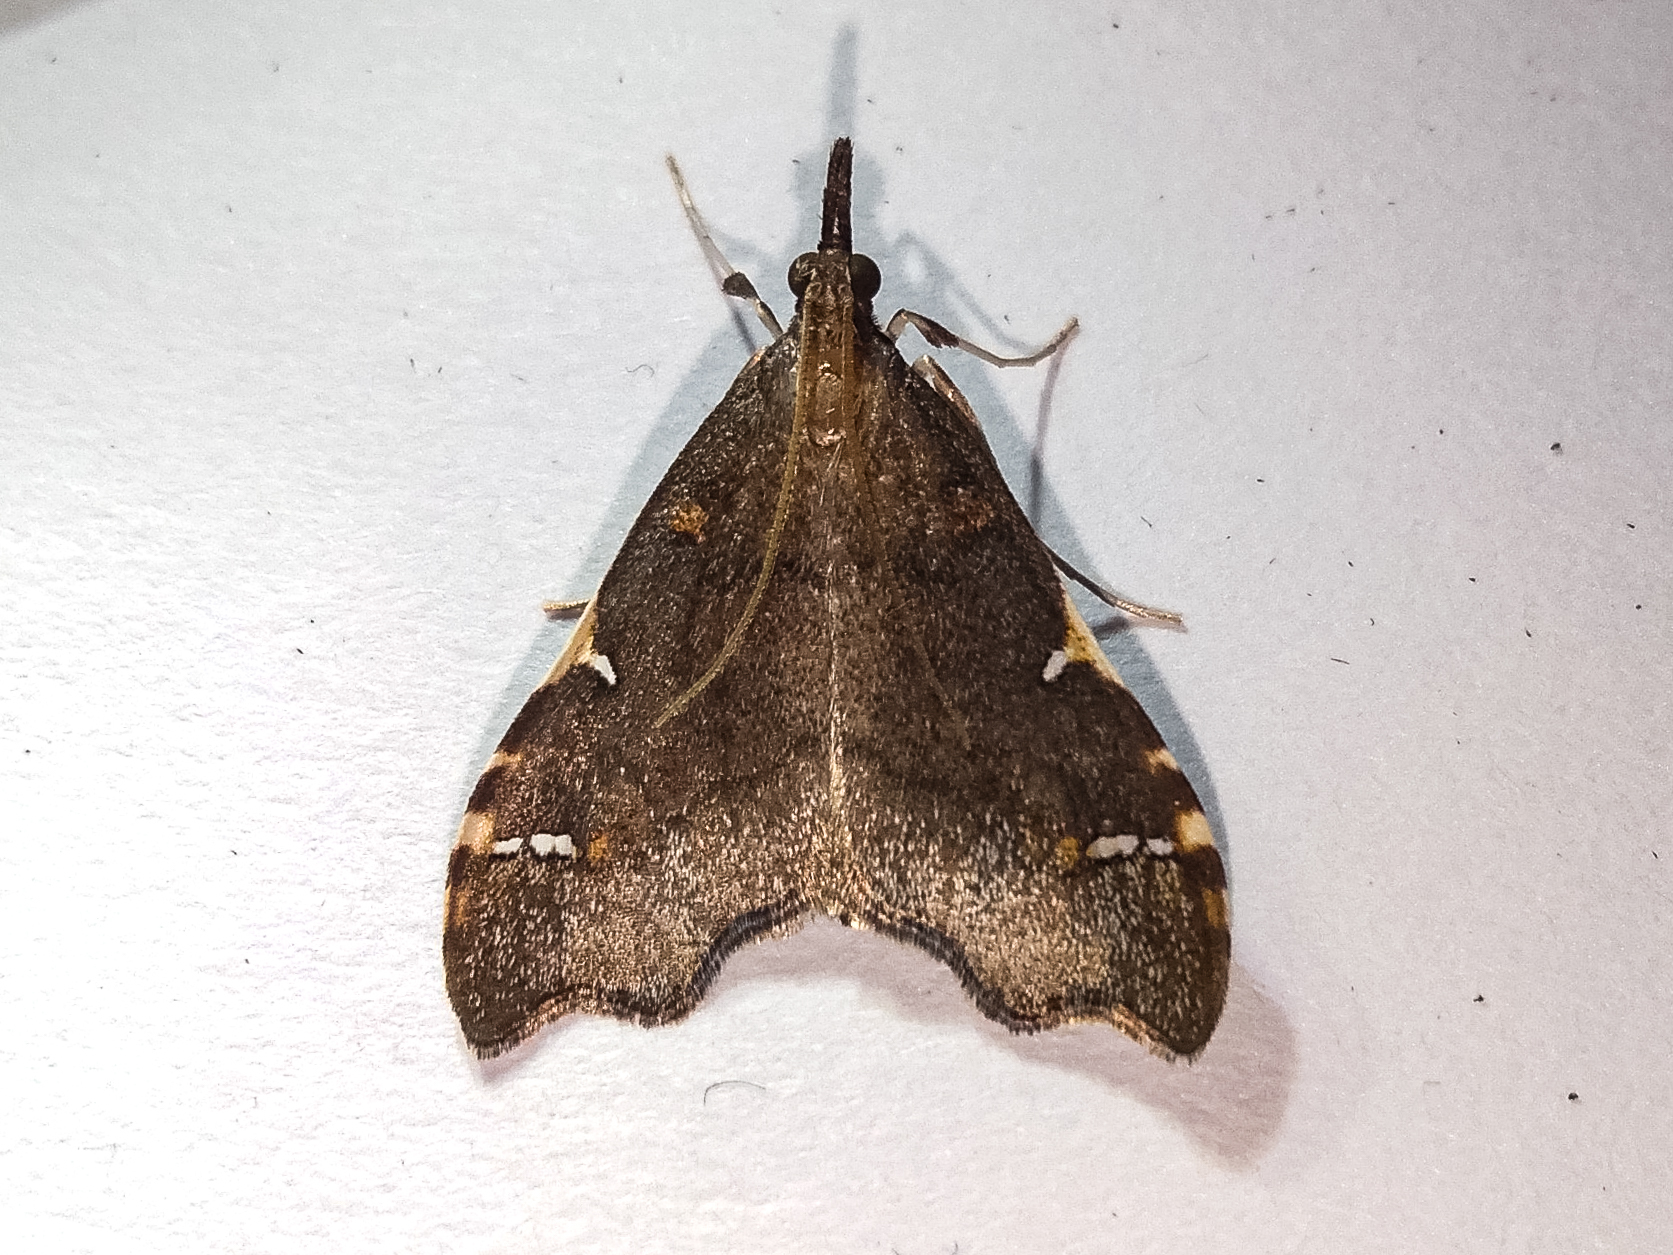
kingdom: Animalia
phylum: Arthropoda
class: Insecta
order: Lepidoptera
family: Crambidae
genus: Deana
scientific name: Deana hybreasalis
